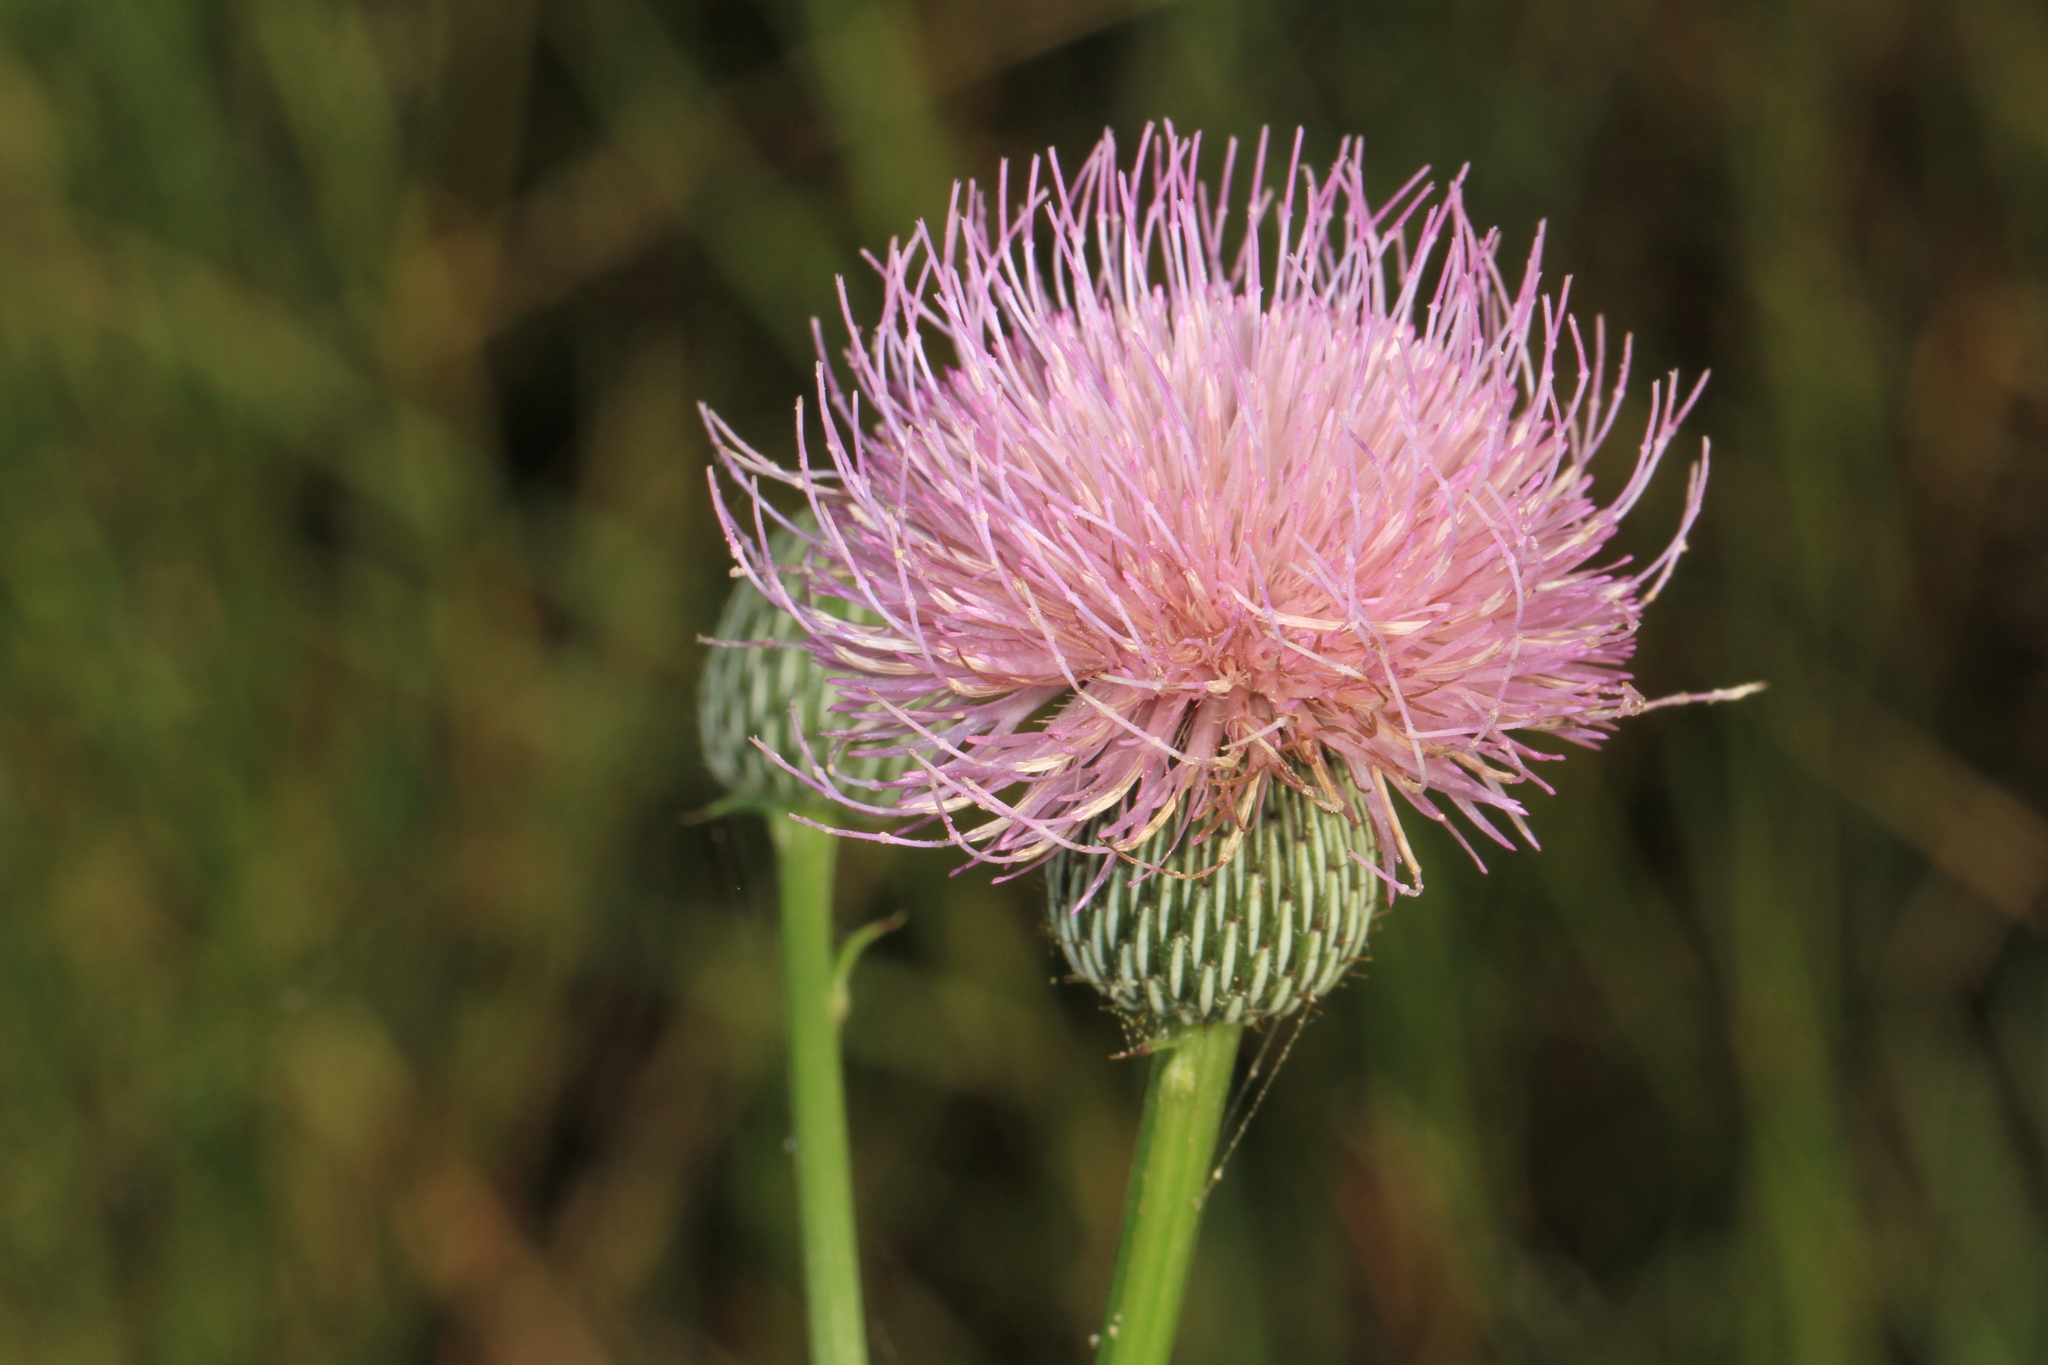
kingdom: Plantae
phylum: Tracheophyta
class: Magnoliopsida
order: Asterales
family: Asteraceae
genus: Cirsium
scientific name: Cirsium nuttalii
